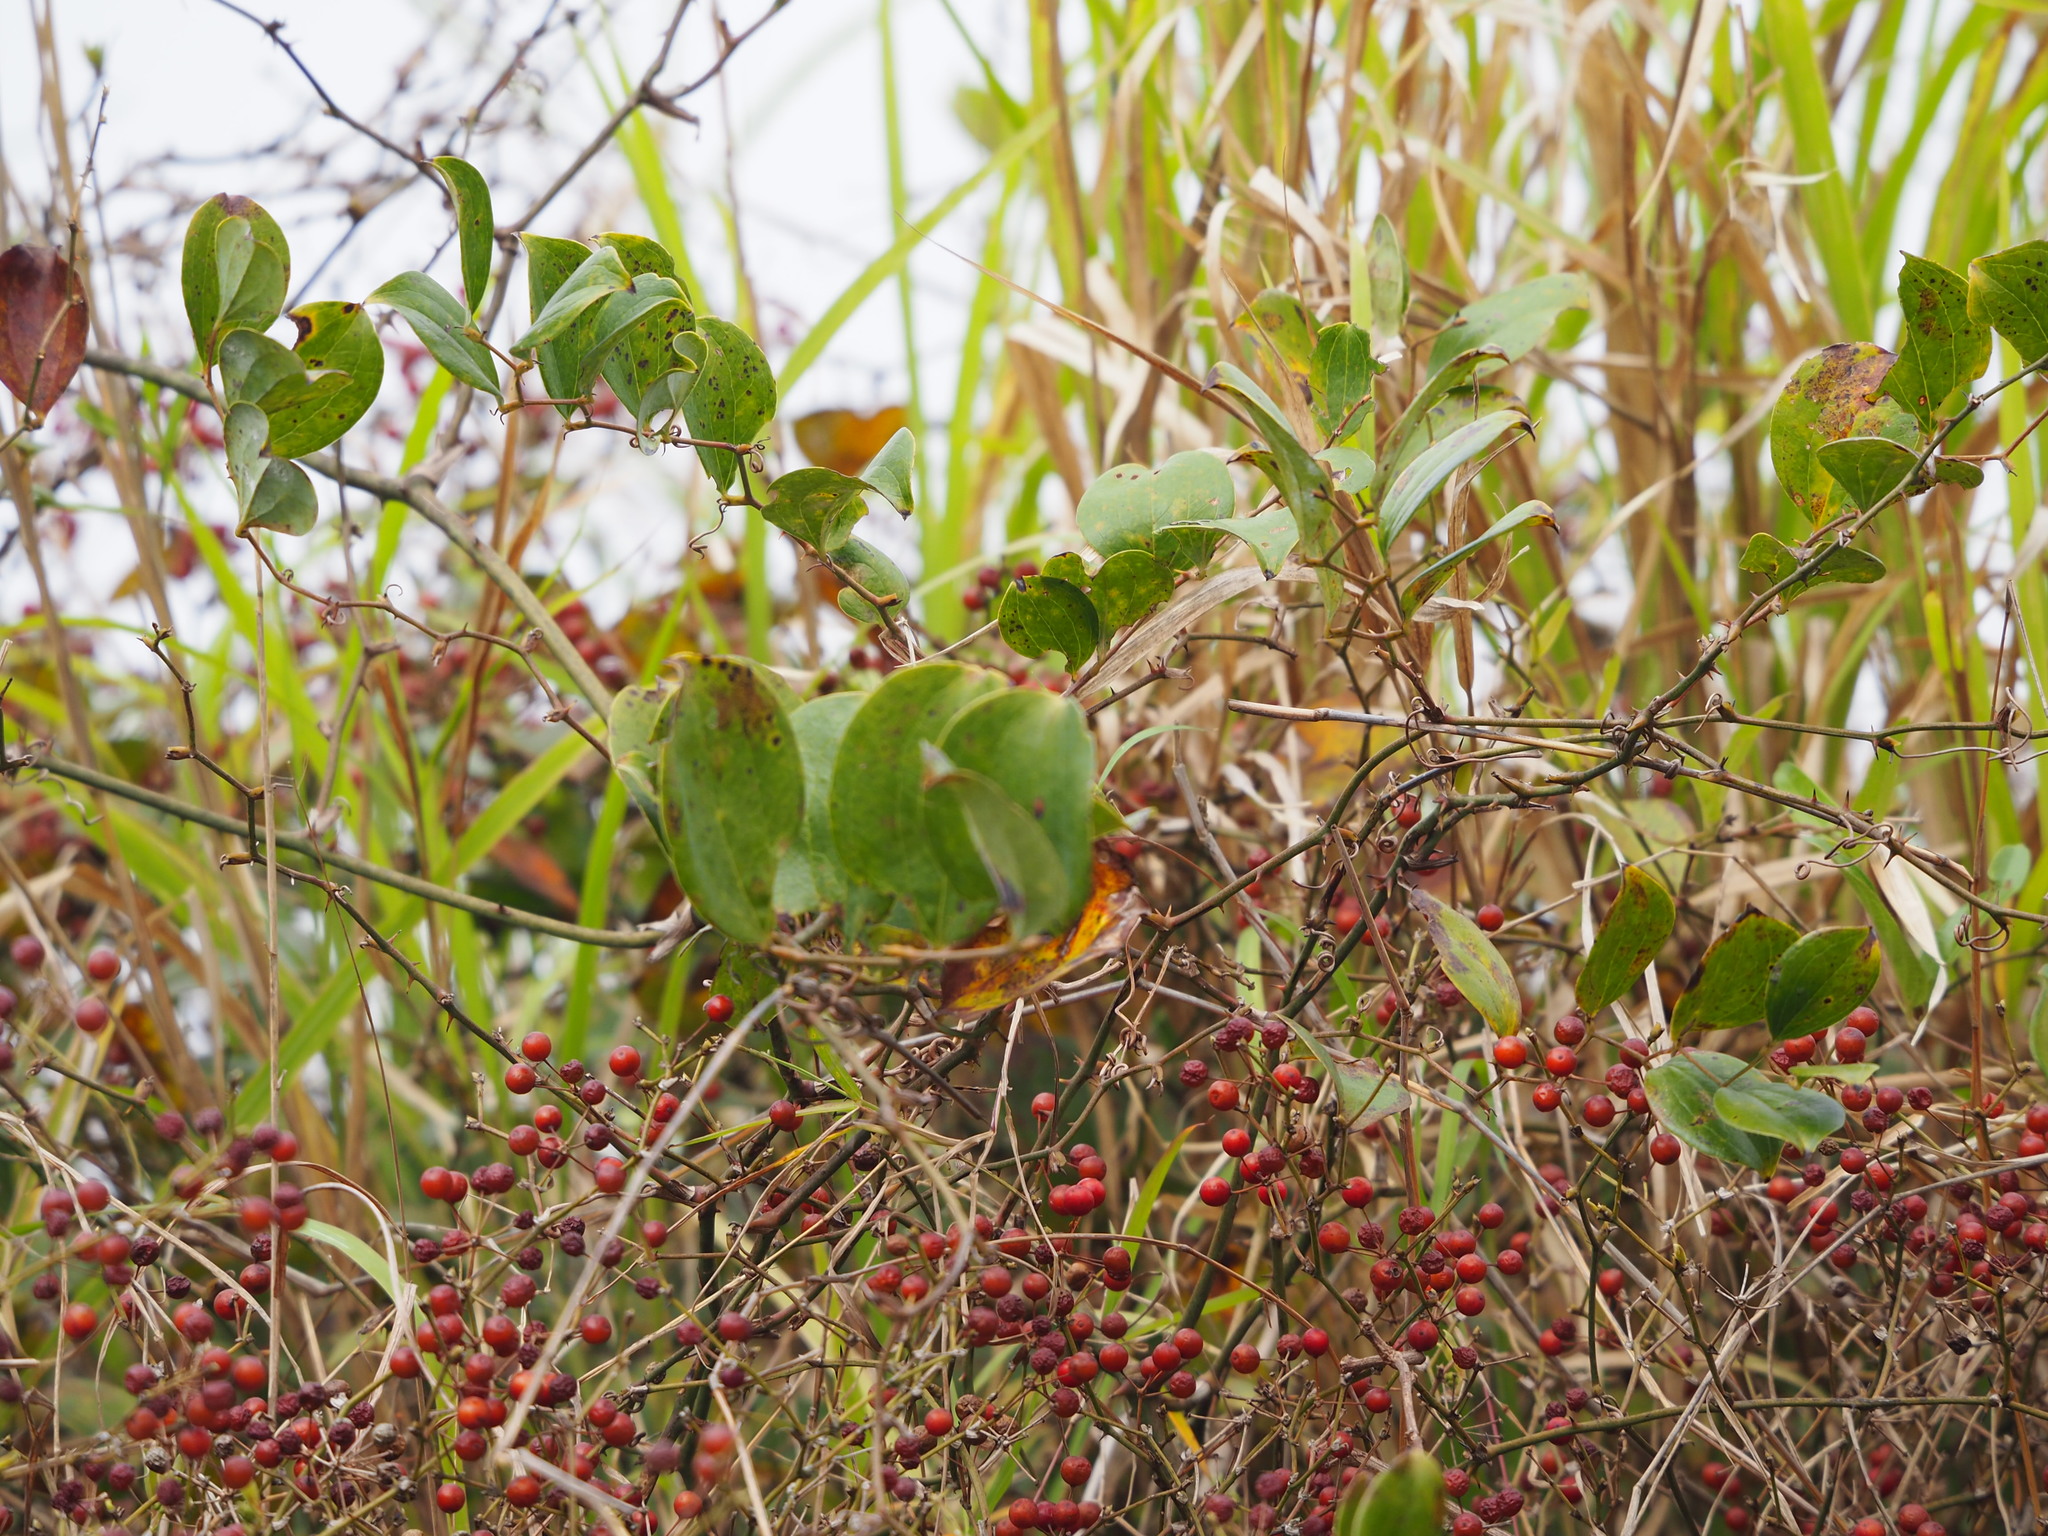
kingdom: Plantae
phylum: Tracheophyta
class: Liliopsida
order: Liliales
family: Smilacaceae
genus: Smilax
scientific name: Smilax china
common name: Chinaroot
